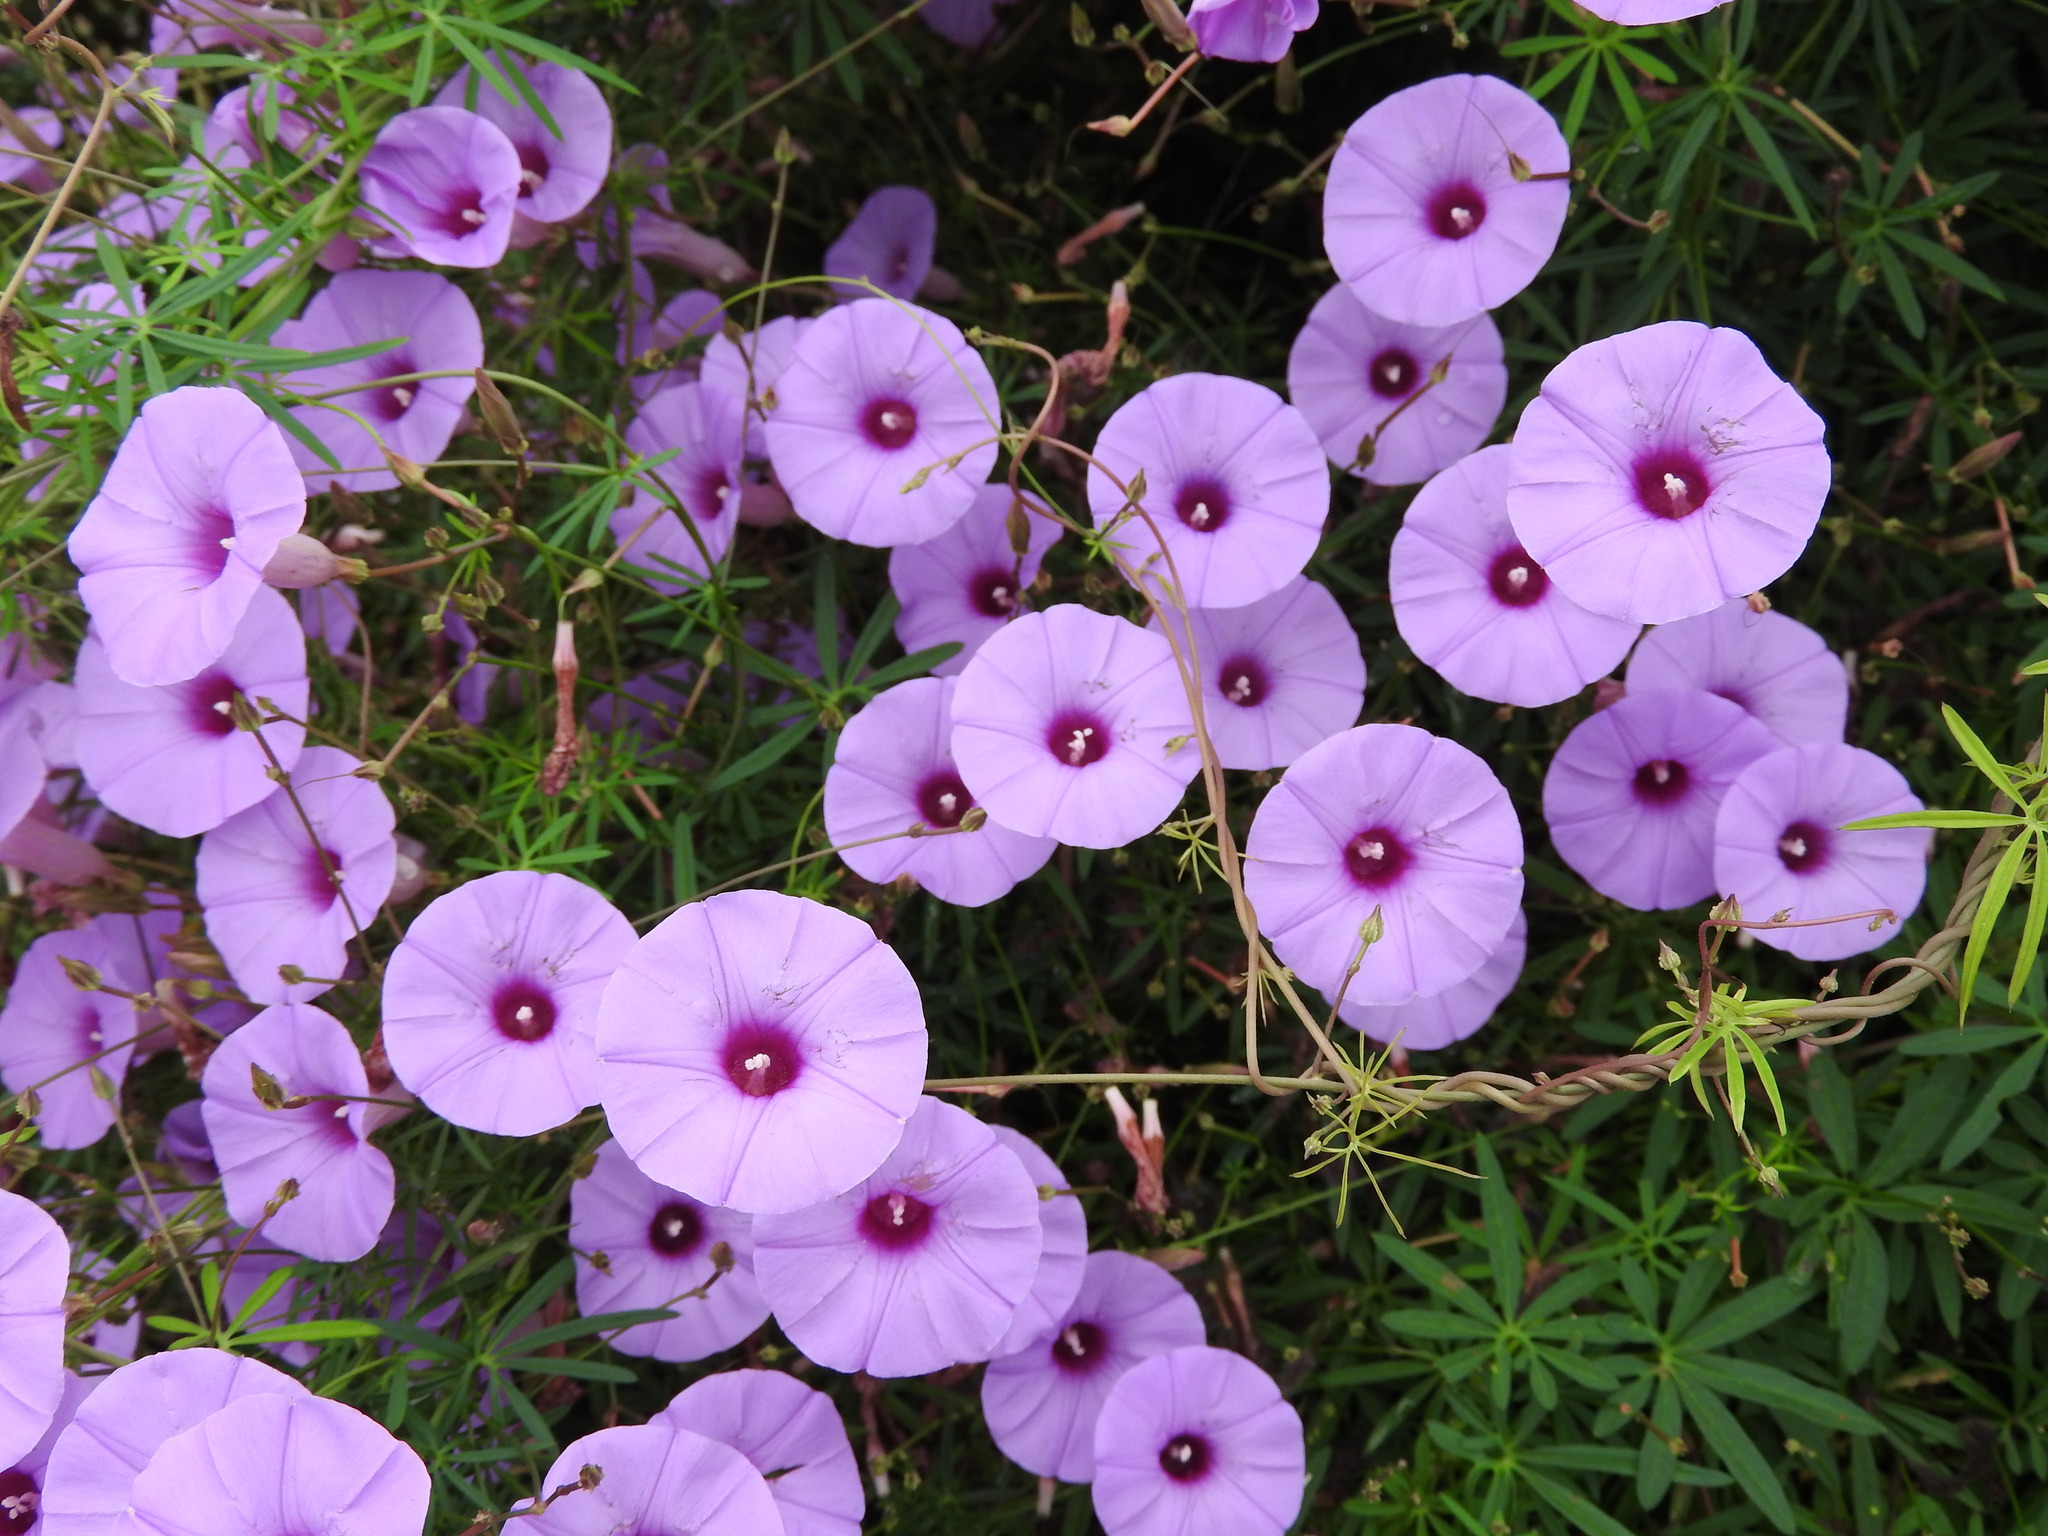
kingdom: Plantae
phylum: Tracheophyta
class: Magnoliopsida
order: Solanales
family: Convolvulaceae
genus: Ipomoea
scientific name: Ipomoea ternifolia
